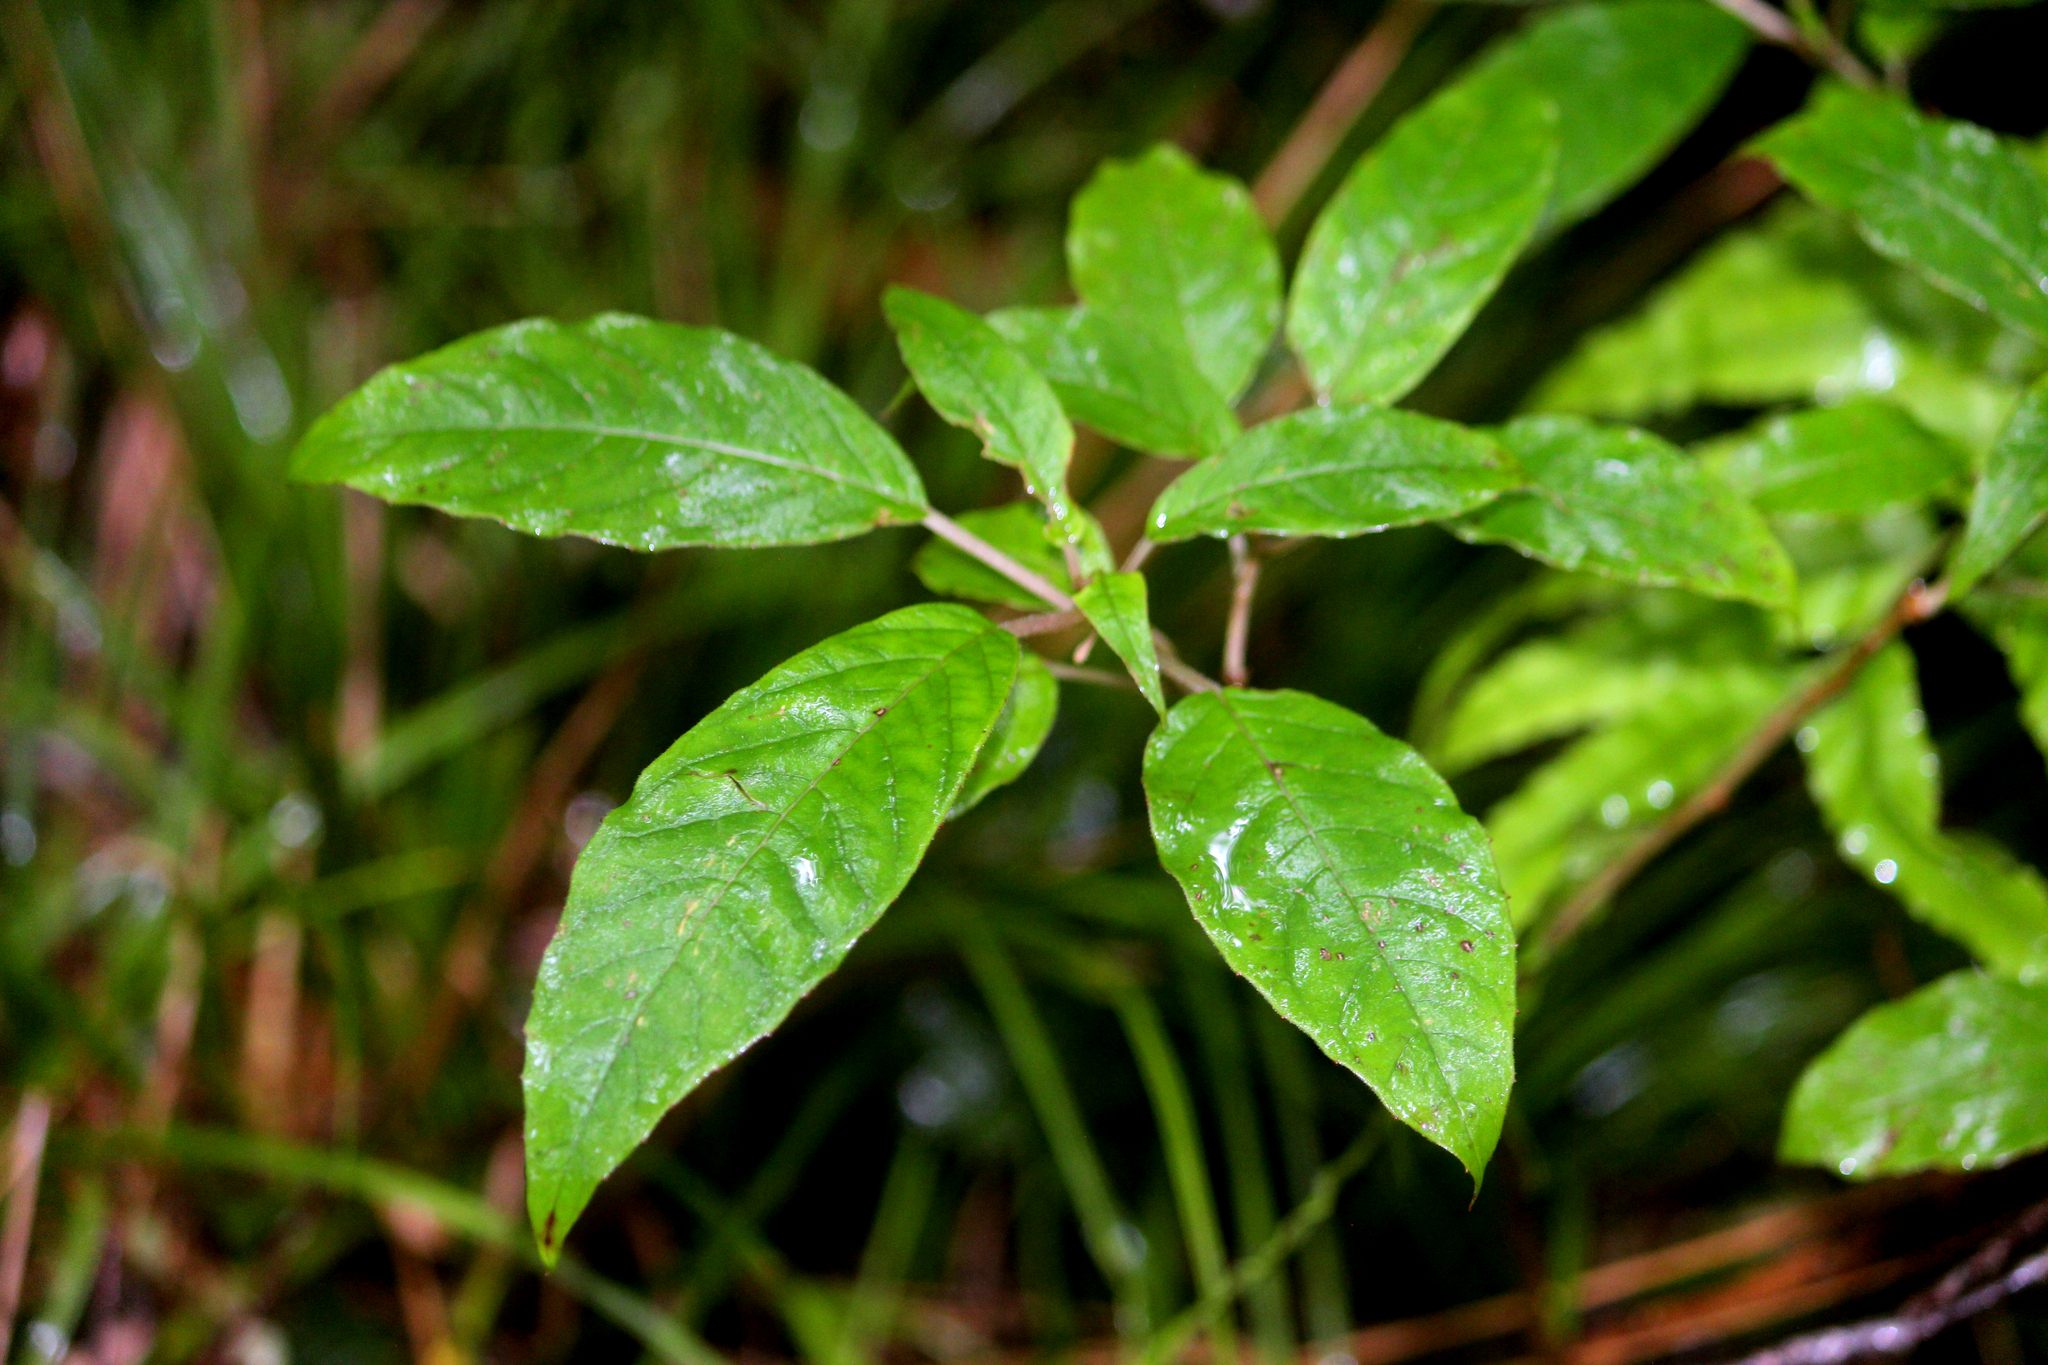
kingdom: Plantae
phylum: Tracheophyta
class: Magnoliopsida
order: Myrtales
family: Onagraceae
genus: Fuchsia
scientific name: Fuchsia excorticata
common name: Tree fuchsia
